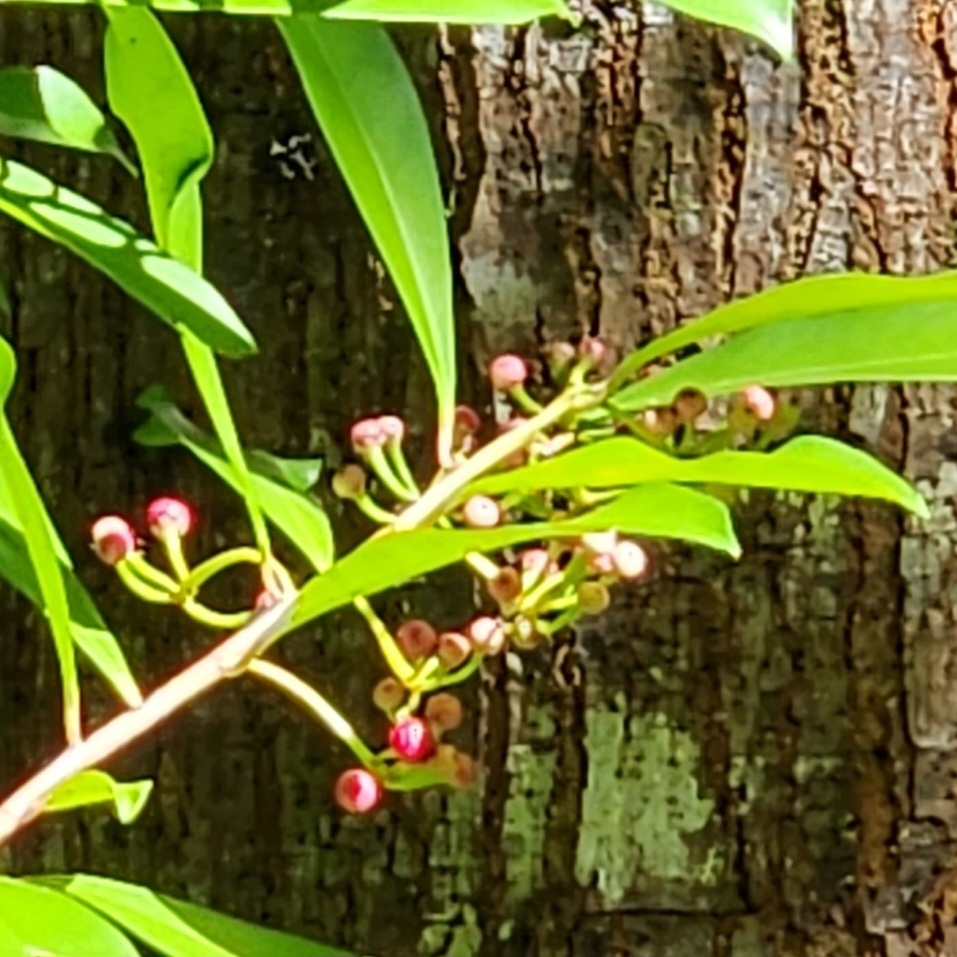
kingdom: Plantae
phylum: Tracheophyta
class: Magnoliopsida
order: Ericales
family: Primulaceae
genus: Ardisia
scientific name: Ardisia elliptica
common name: Shoebutton
